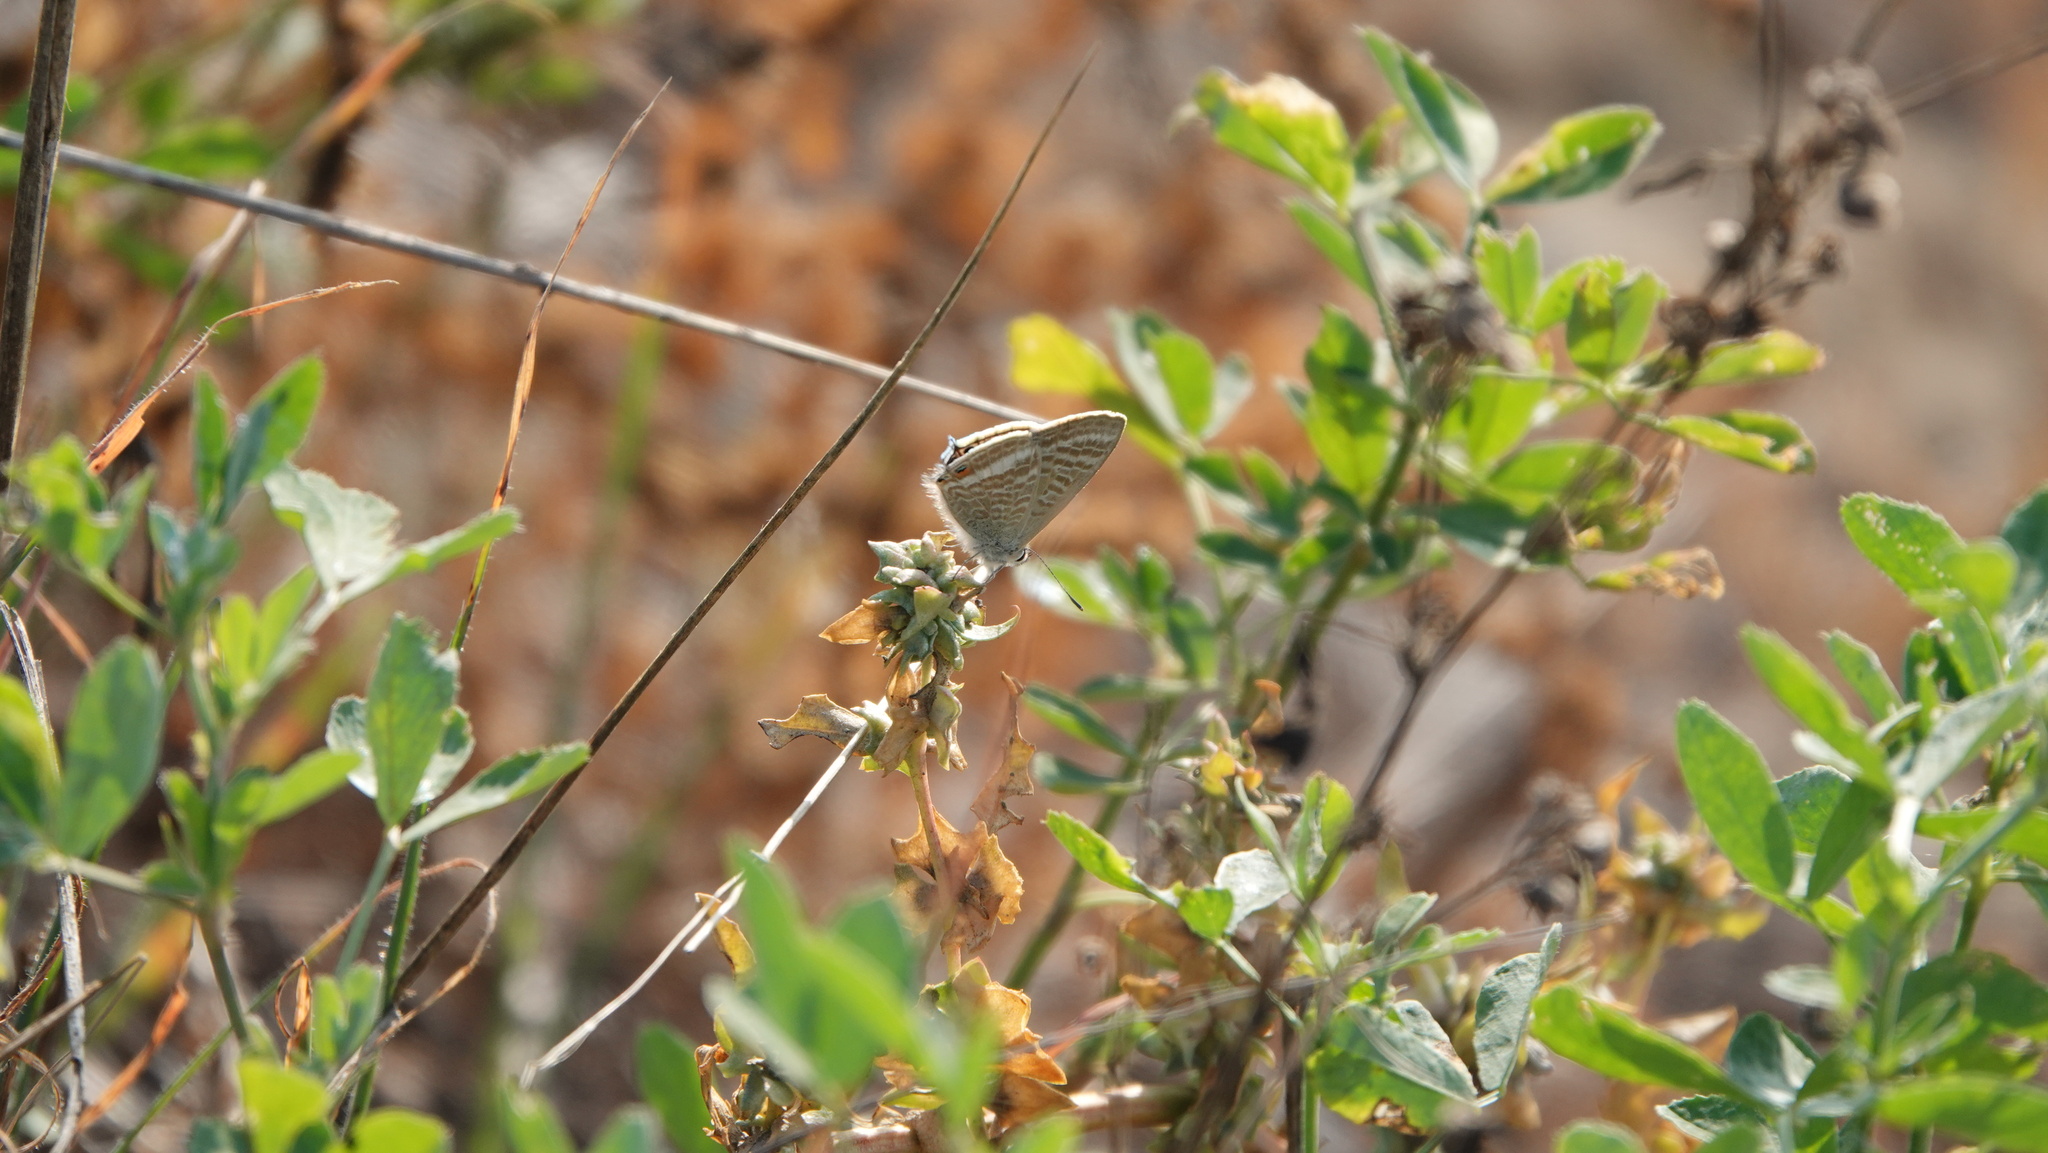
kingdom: Animalia
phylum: Arthropoda
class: Insecta
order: Lepidoptera
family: Lycaenidae
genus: Lampides
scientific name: Lampides boeticus
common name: Long-tailed blue
